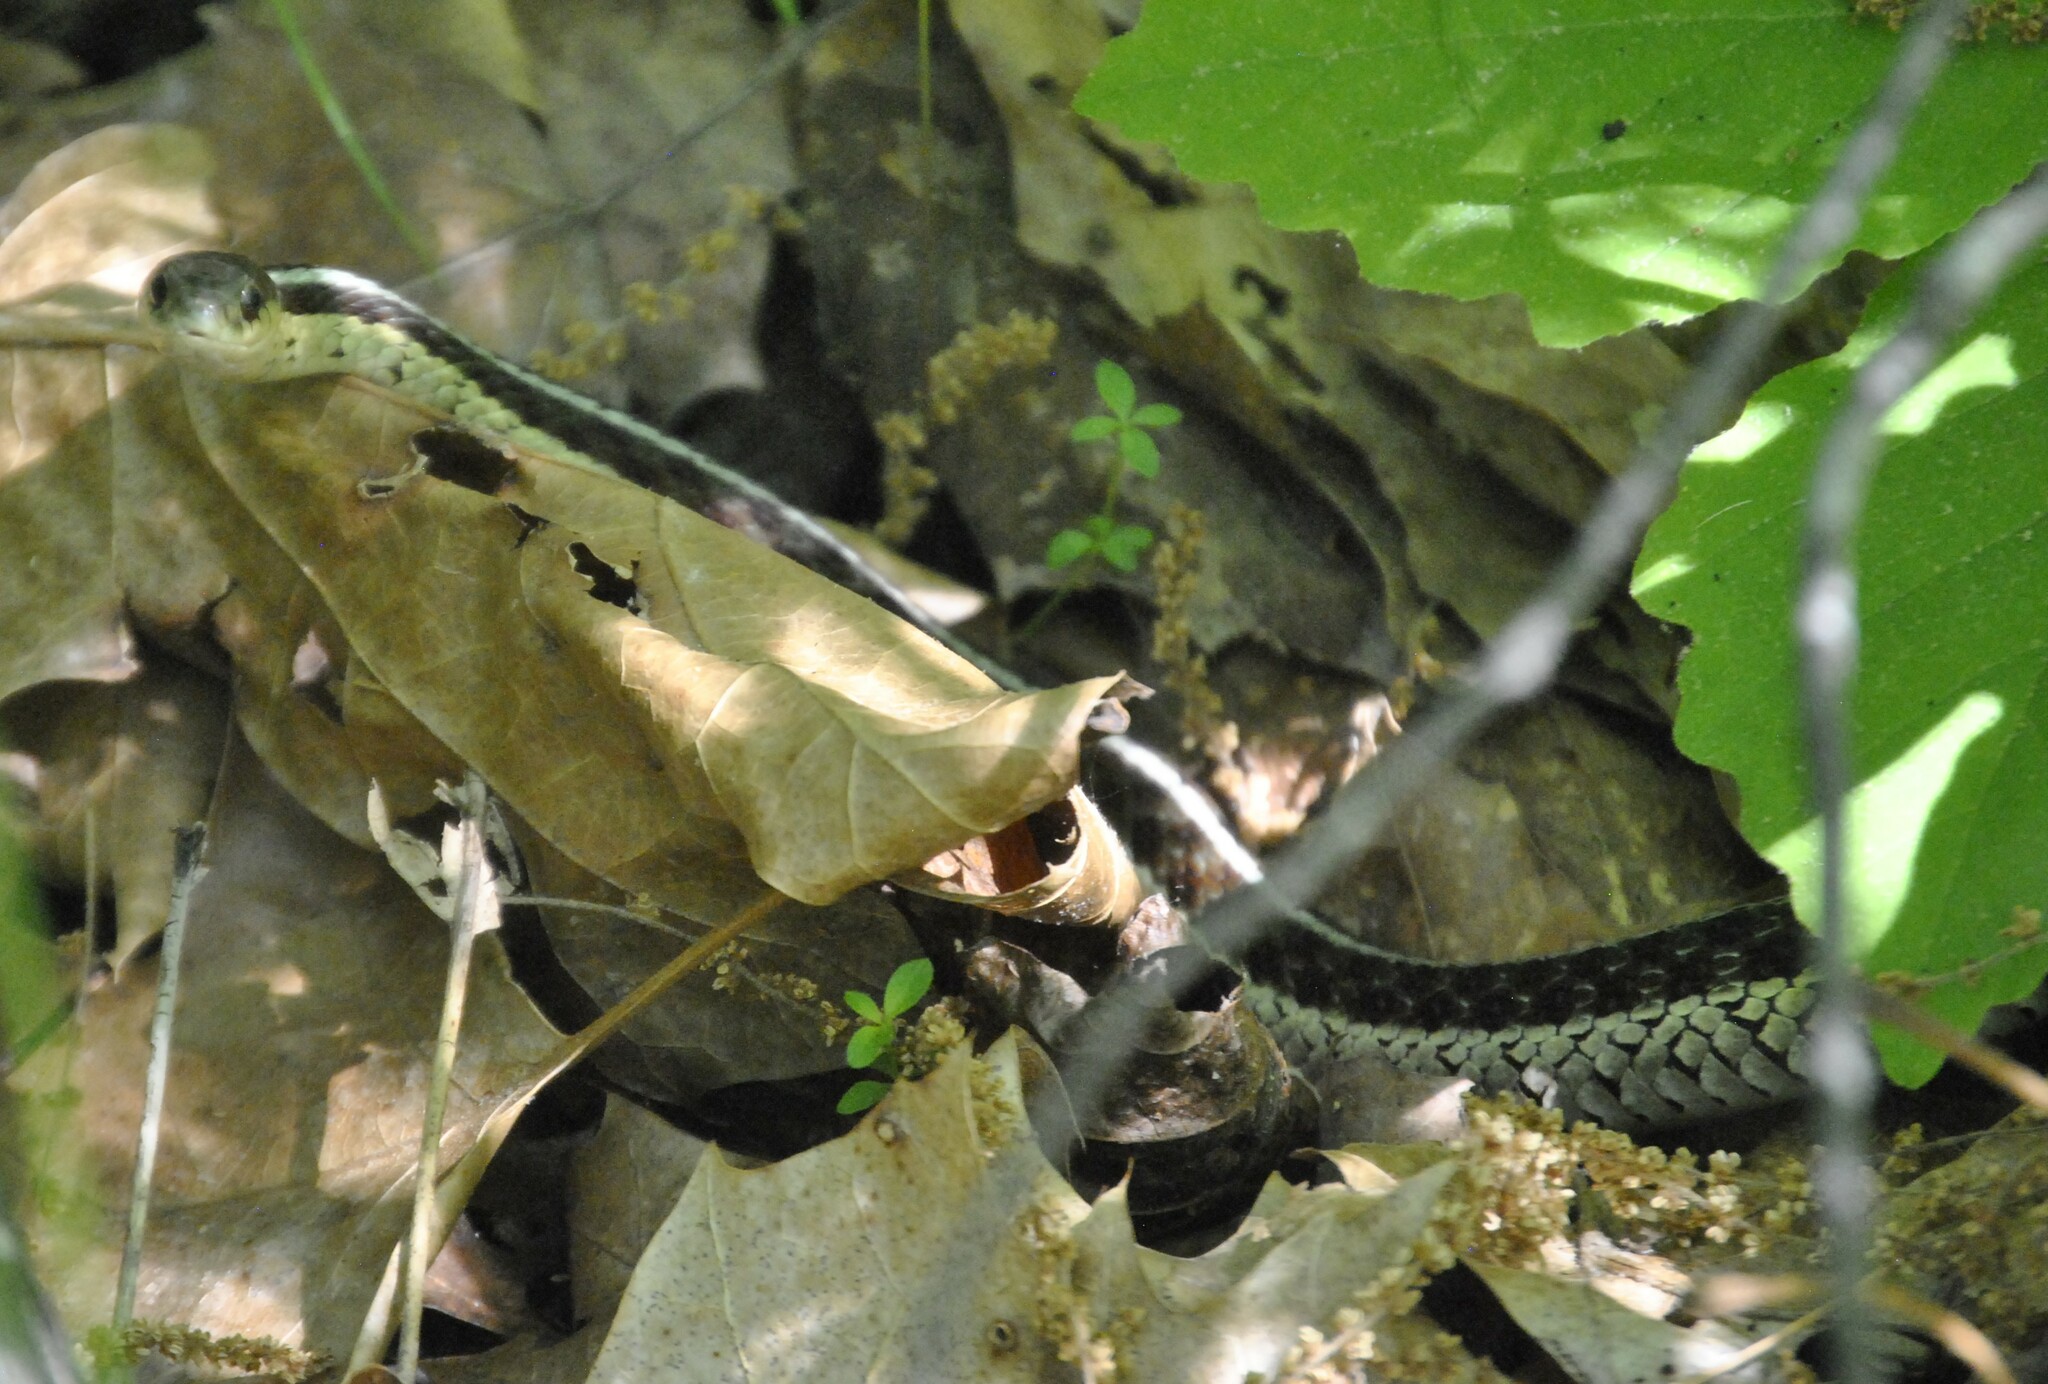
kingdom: Animalia
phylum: Chordata
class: Squamata
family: Colubridae
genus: Thamnophis
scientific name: Thamnophis sirtalis
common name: Common garter snake
